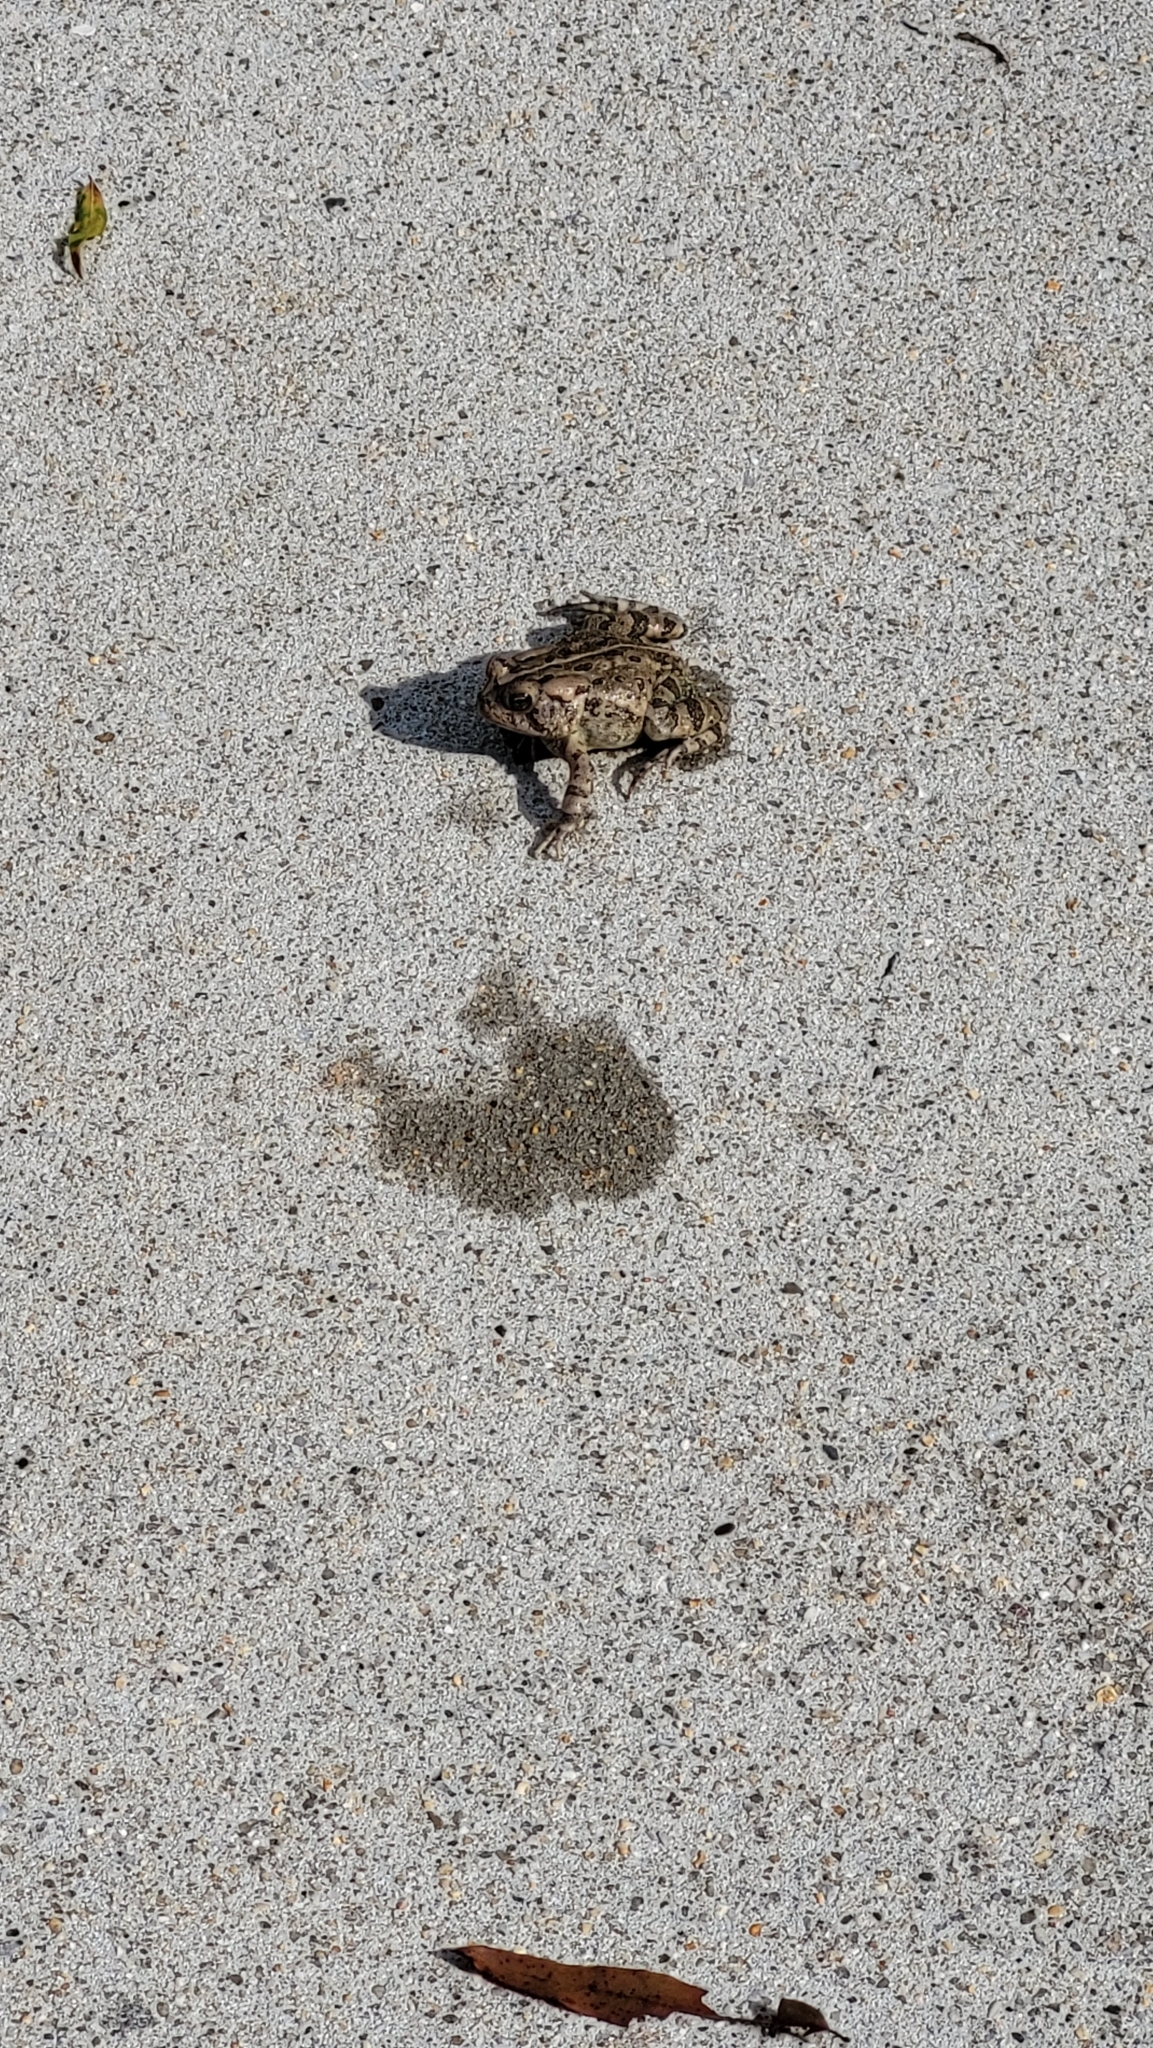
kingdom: Animalia
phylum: Chordata
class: Amphibia
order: Anura
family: Bufonidae
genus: Anaxyrus
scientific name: Anaxyrus fowleri
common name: Fowler's toad
